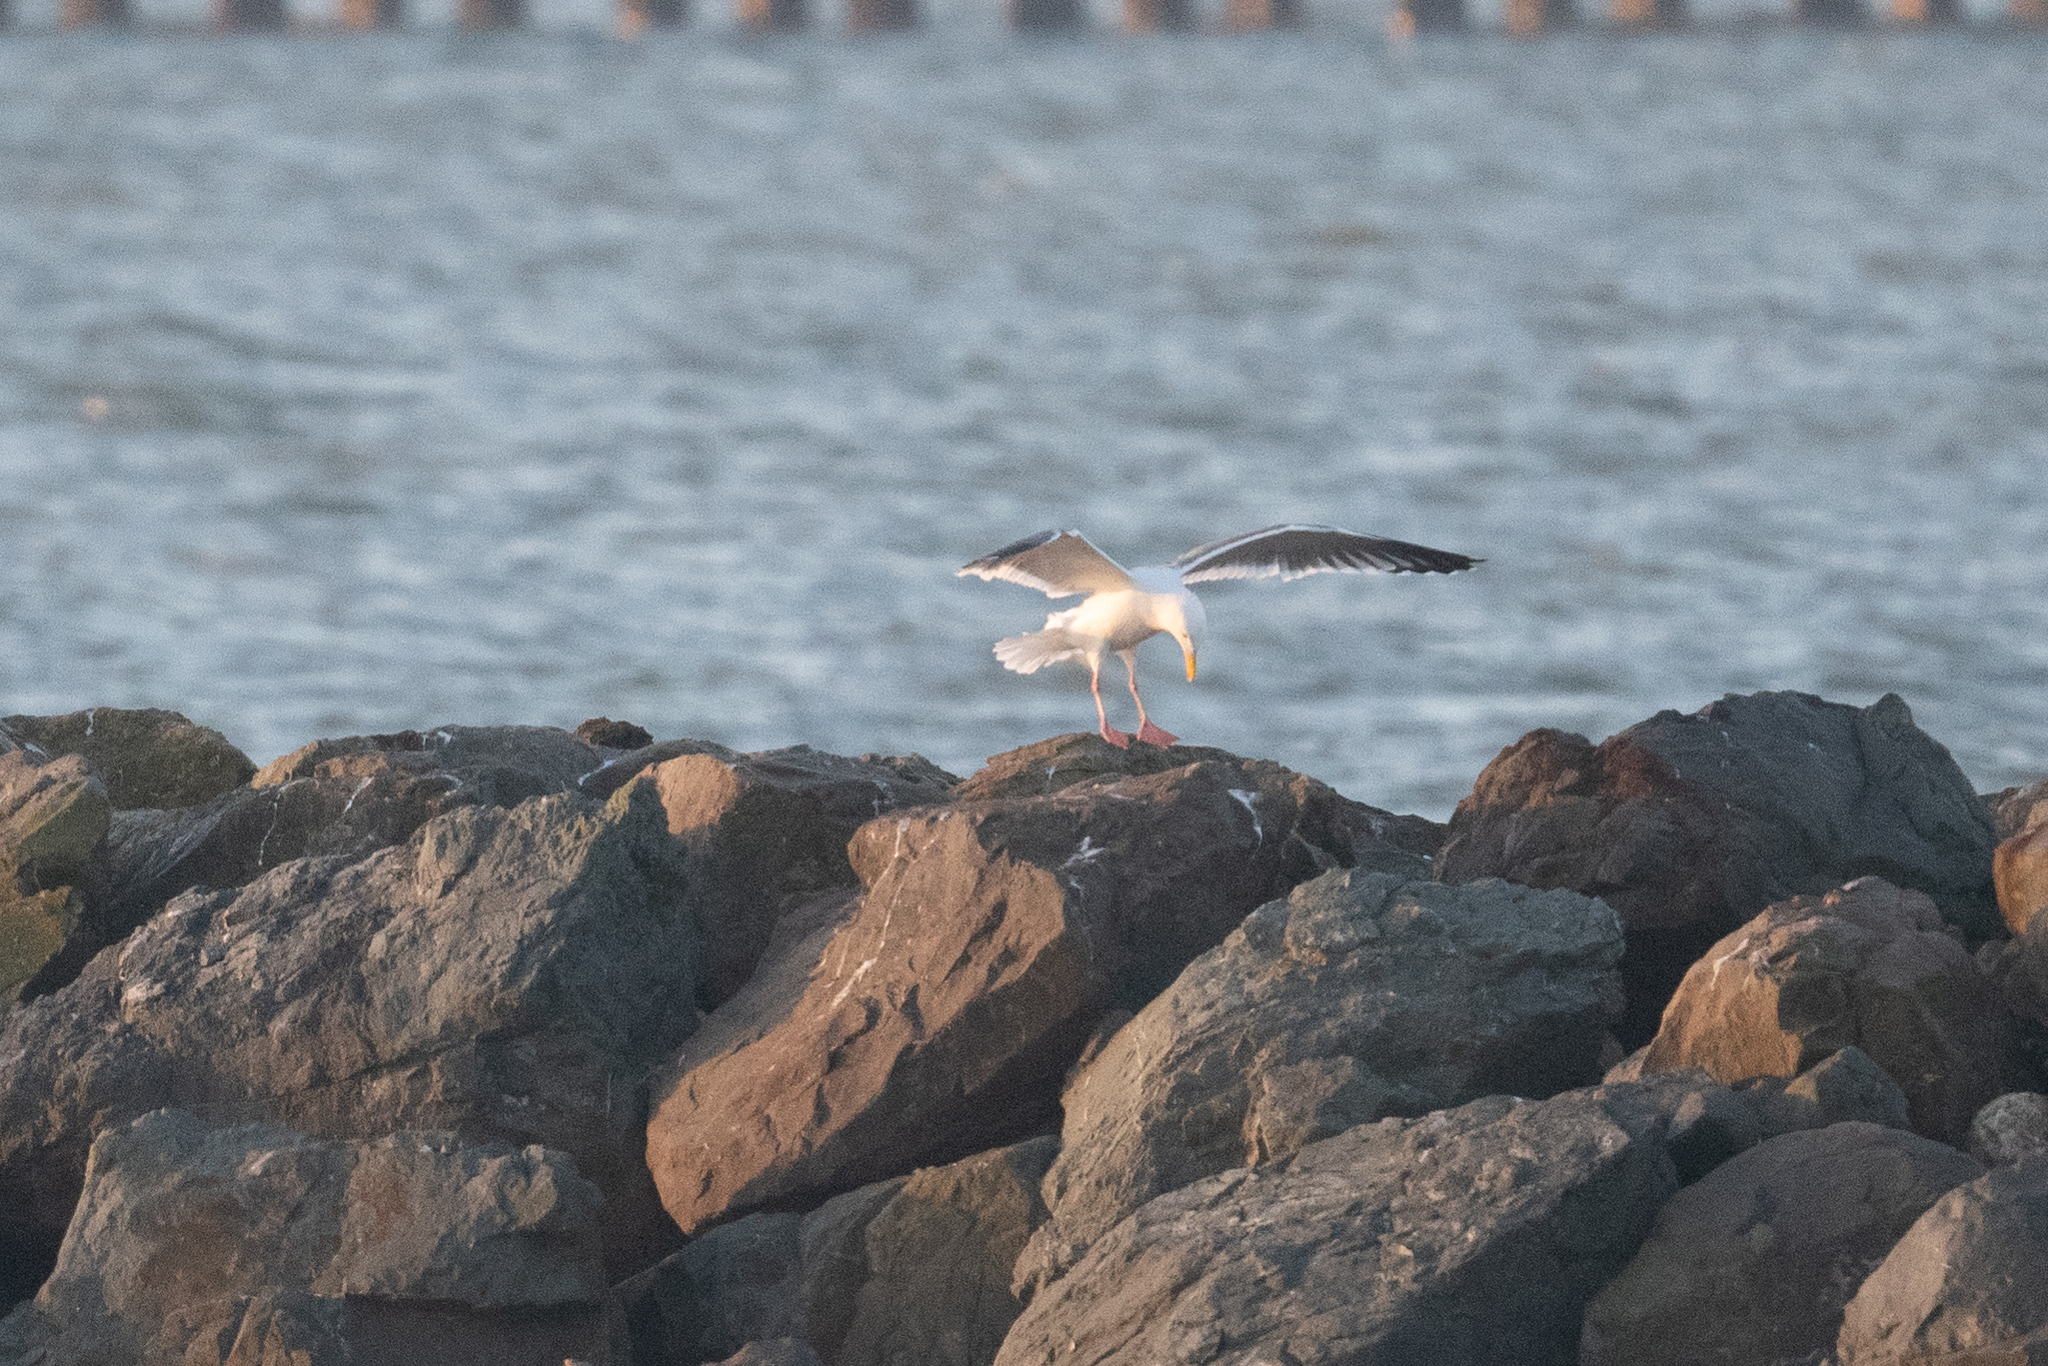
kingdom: Animalia
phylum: Chordata
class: Aves
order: Charadriiformes
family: Laridae
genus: Larus
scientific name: Larus occidentalis
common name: Western gull
